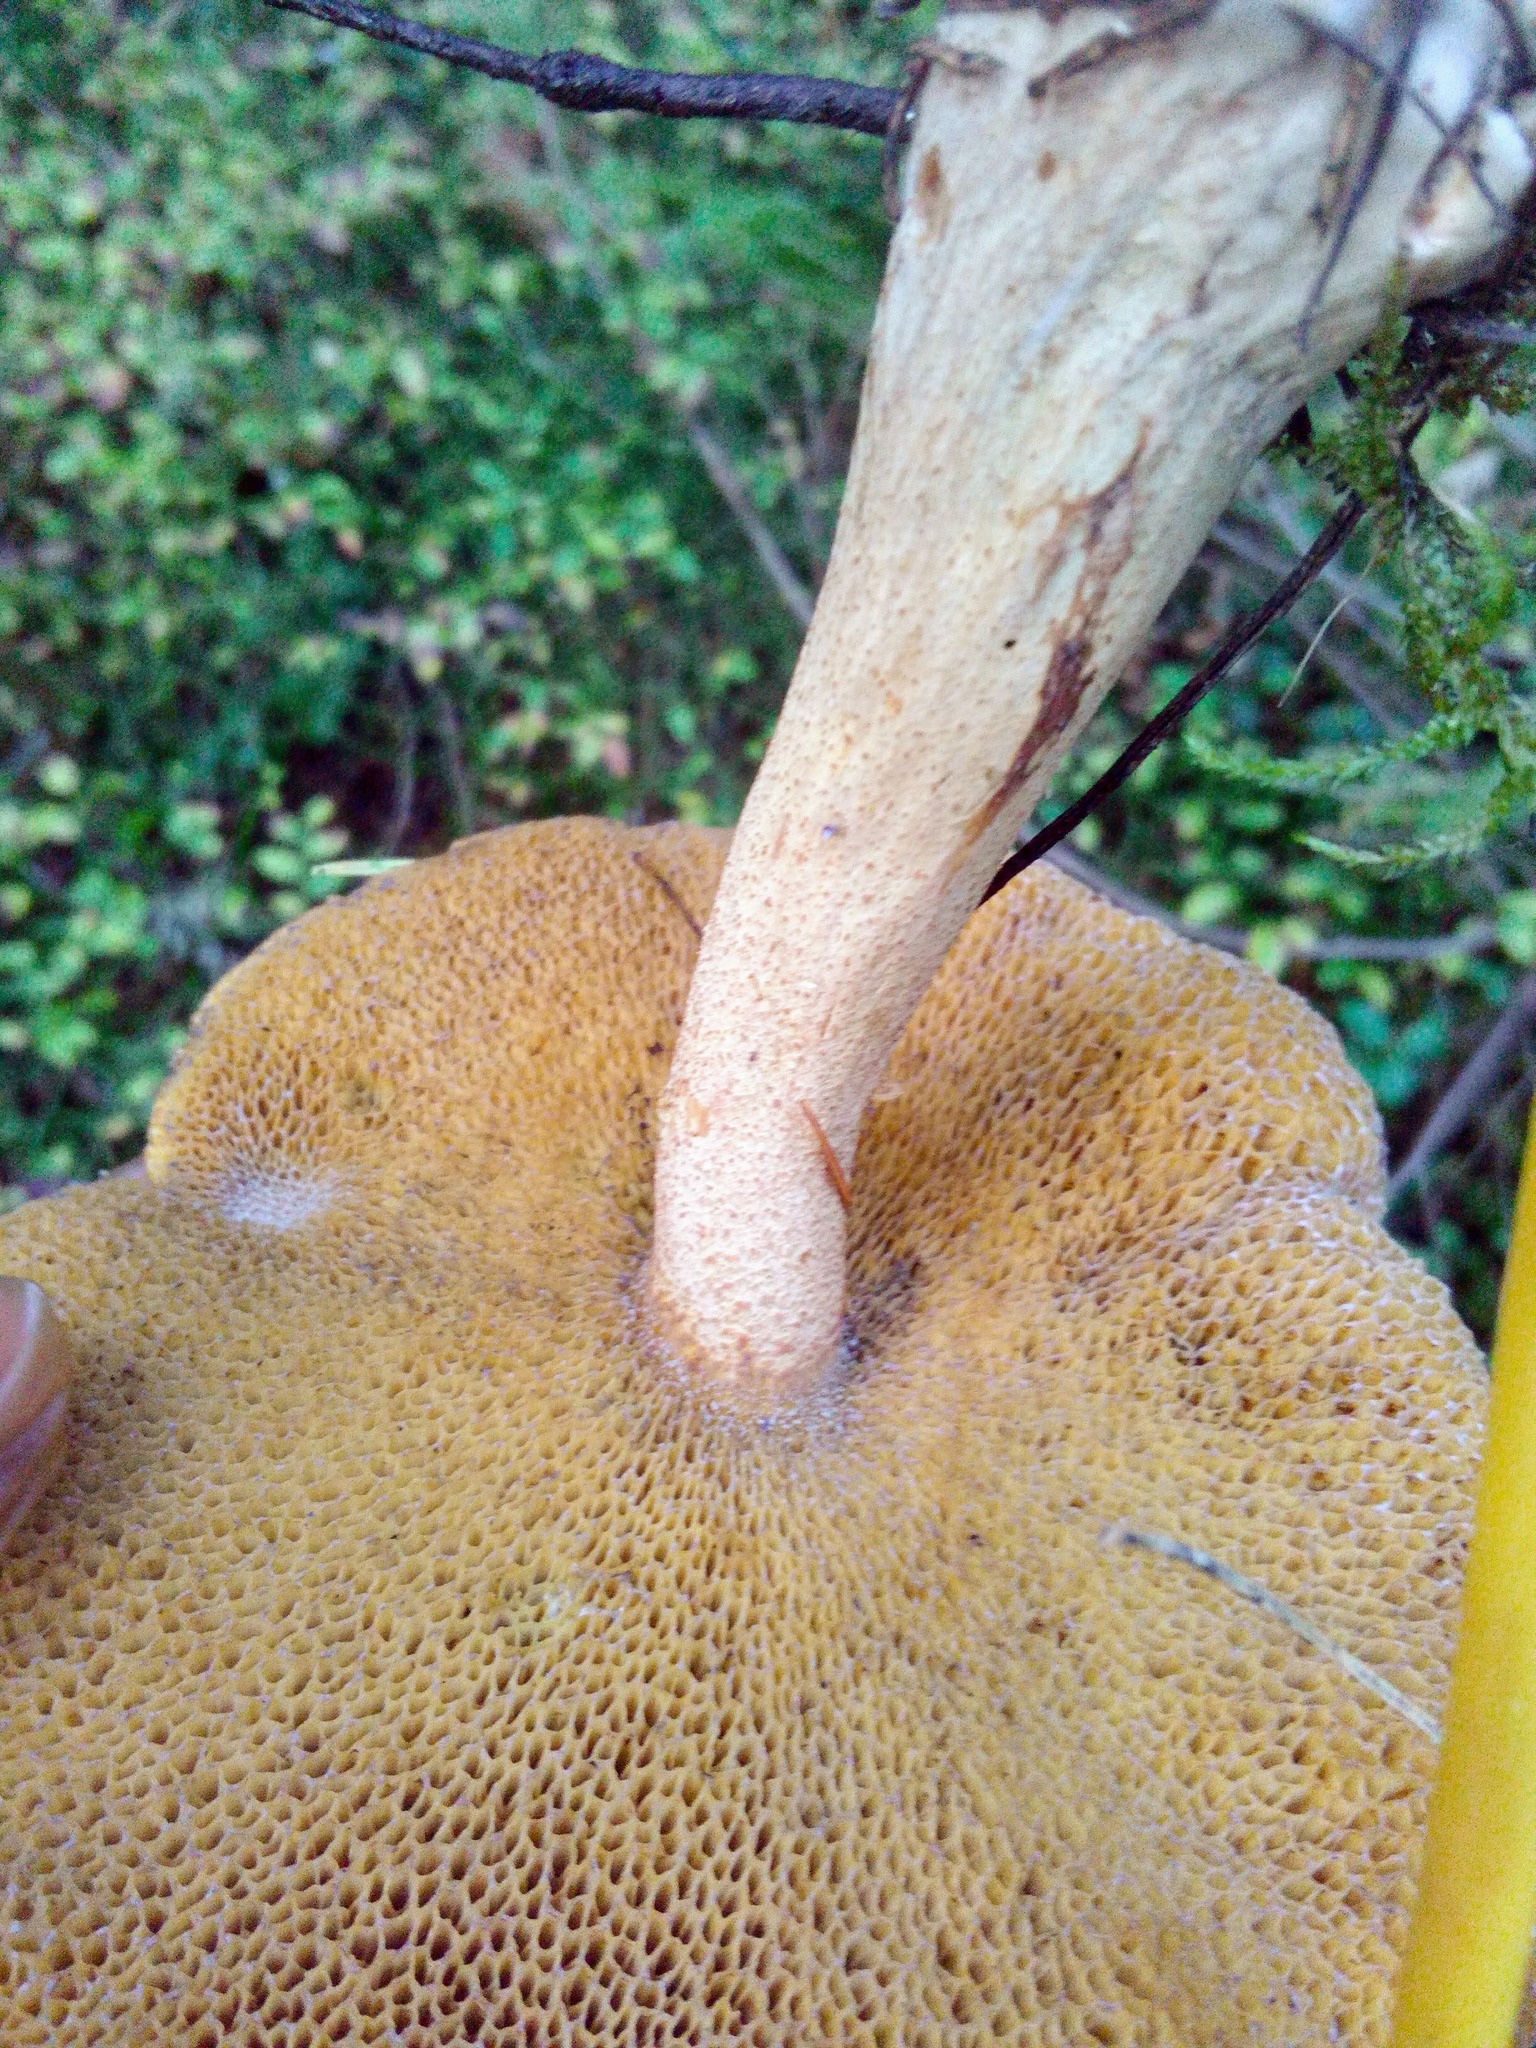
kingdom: Fungi
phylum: Basidiomycota
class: Agaricomycetes
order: Boletales
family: Suillaceae
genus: Suillus
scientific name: Suillus punctipes
